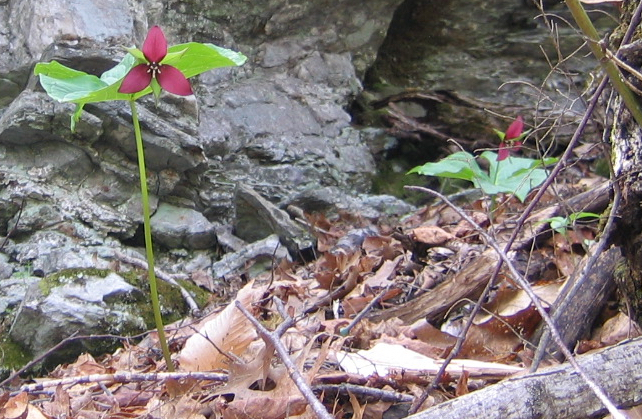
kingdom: Plantae
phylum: Tracheophyta
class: Liliopsida
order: Liliales
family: Melanthiaceae
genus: Trillium
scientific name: Trillium erectum
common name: Purple trillium
